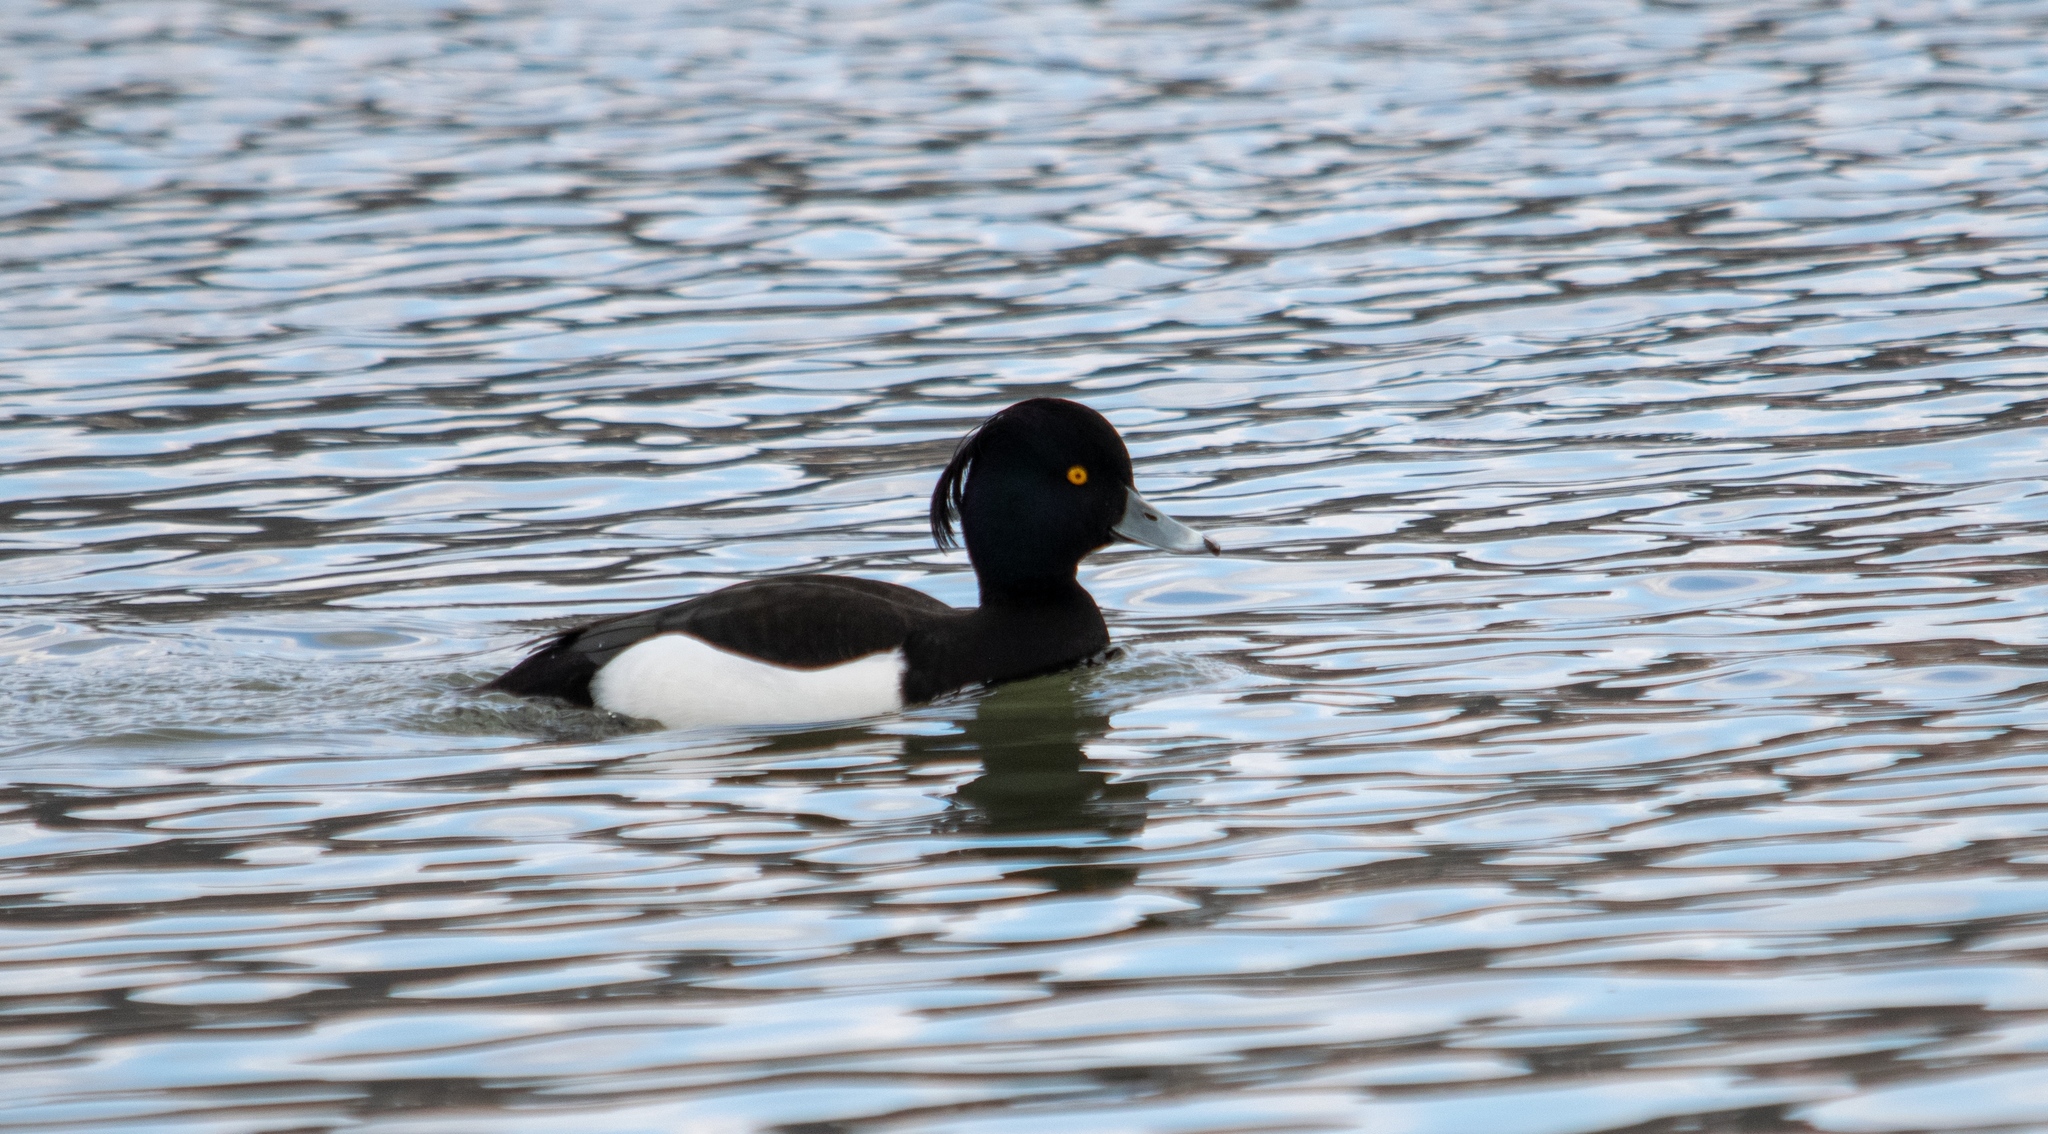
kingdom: Animalia
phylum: Chordata
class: Aves
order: Anseriformes
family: Anatidae
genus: Aythya
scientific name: Aythya fuligula
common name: Tufted duck
